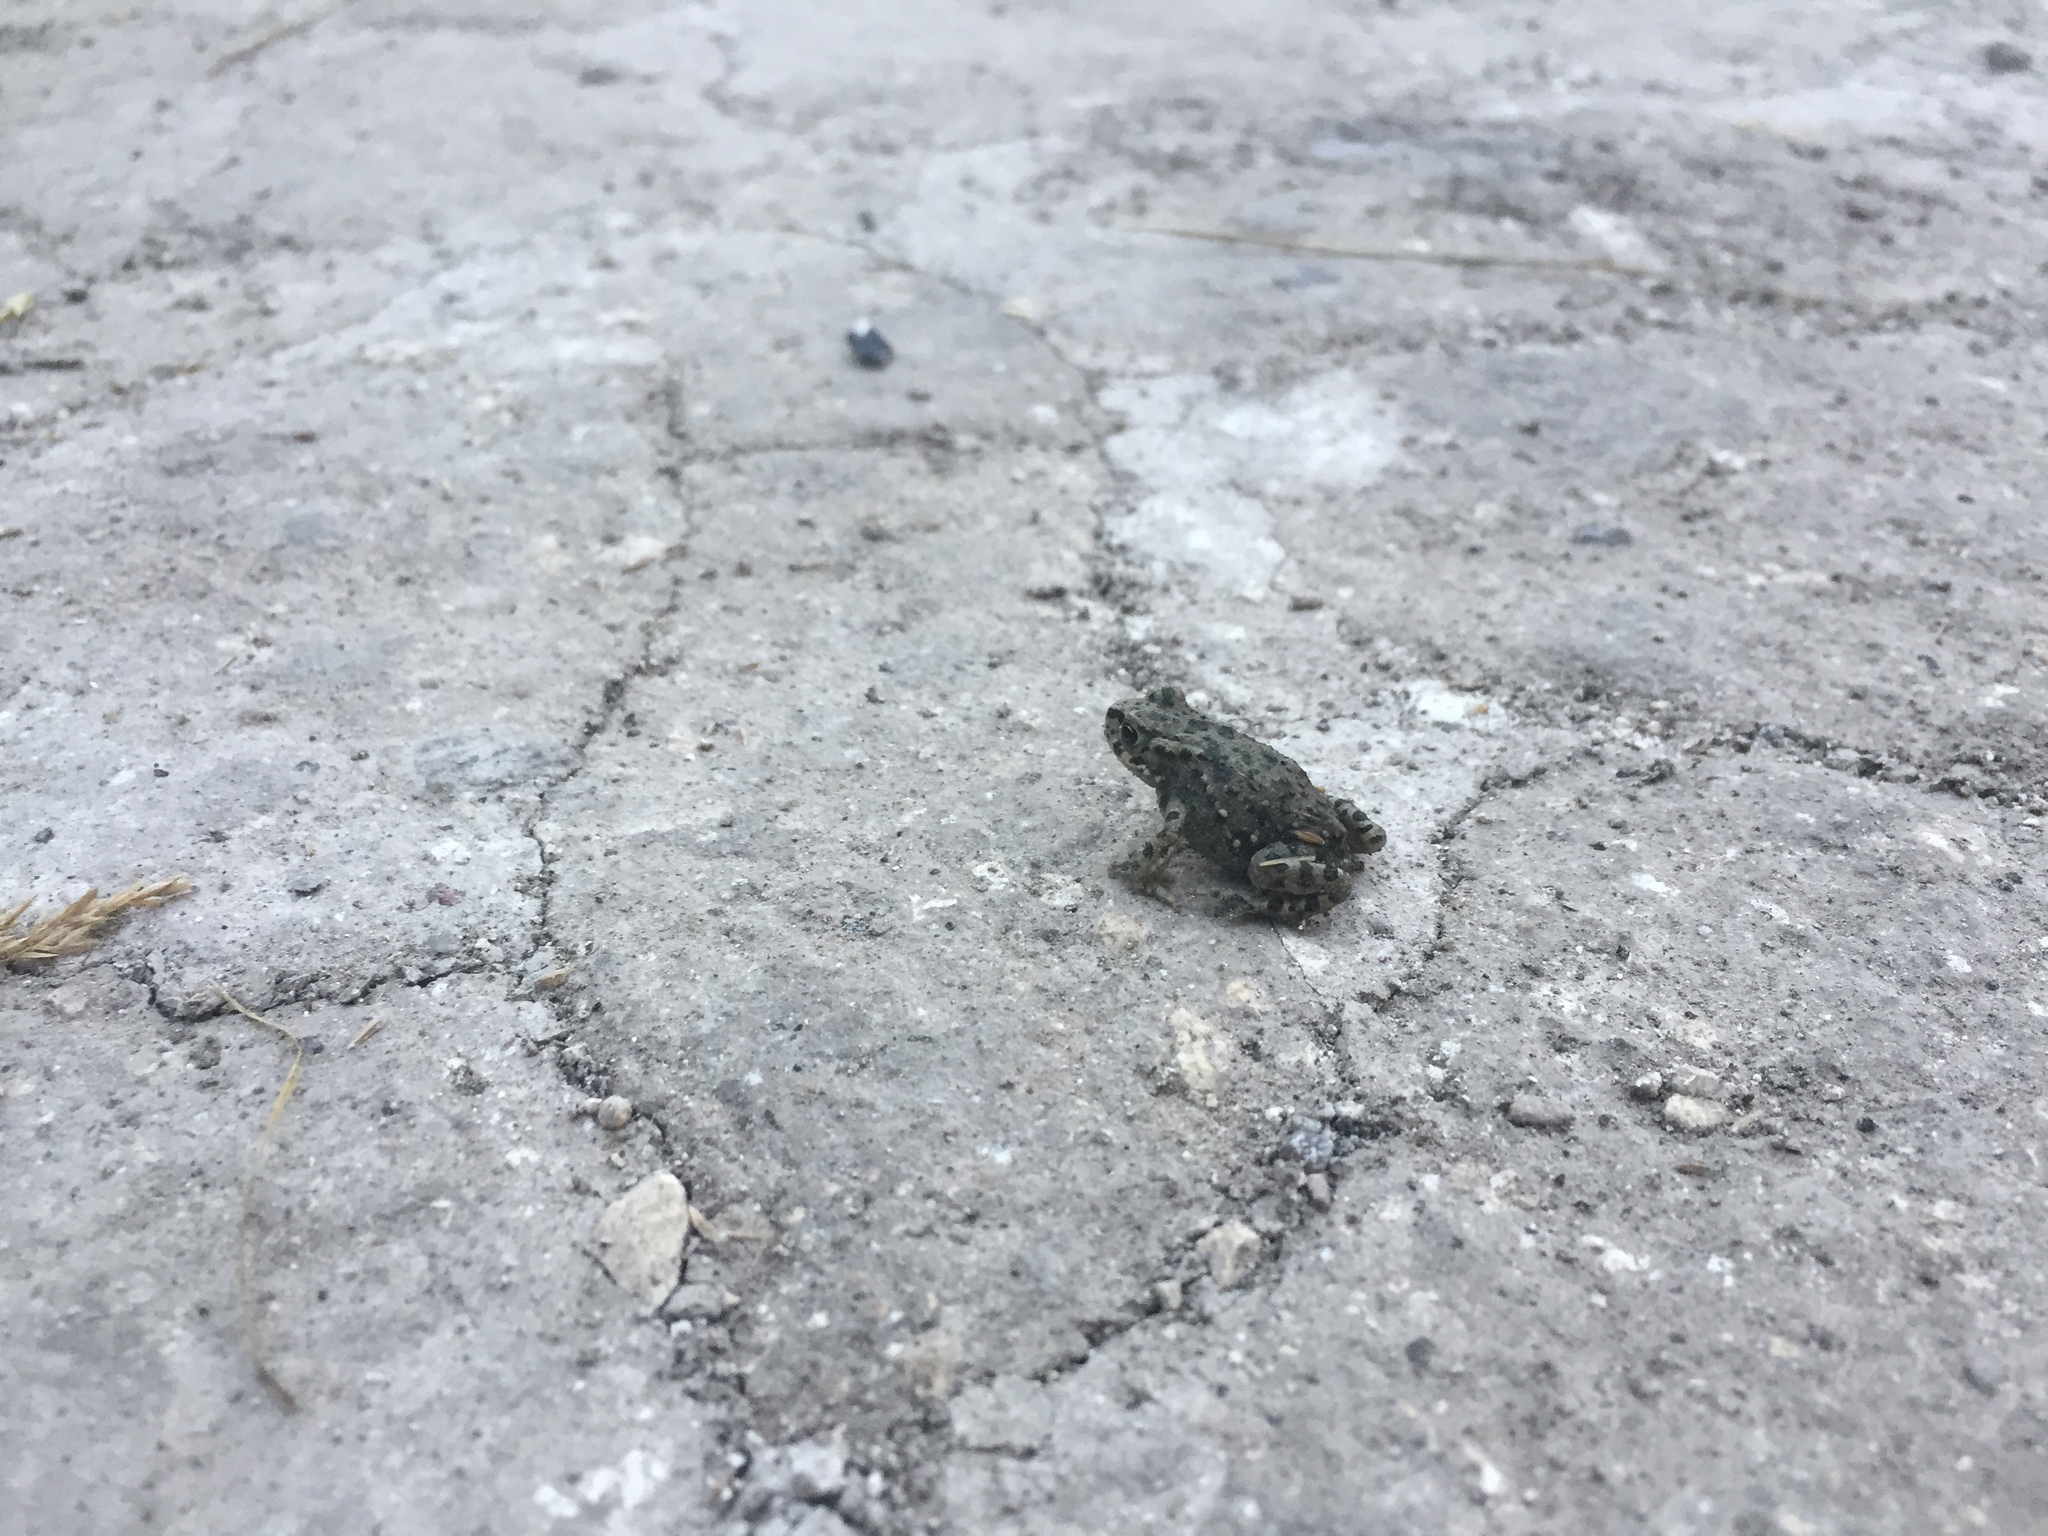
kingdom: Animalia
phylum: Chordata
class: Amphibia
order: Anura
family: Bufonidae
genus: Bufotes
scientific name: Bufotes viridis
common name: European green toad
